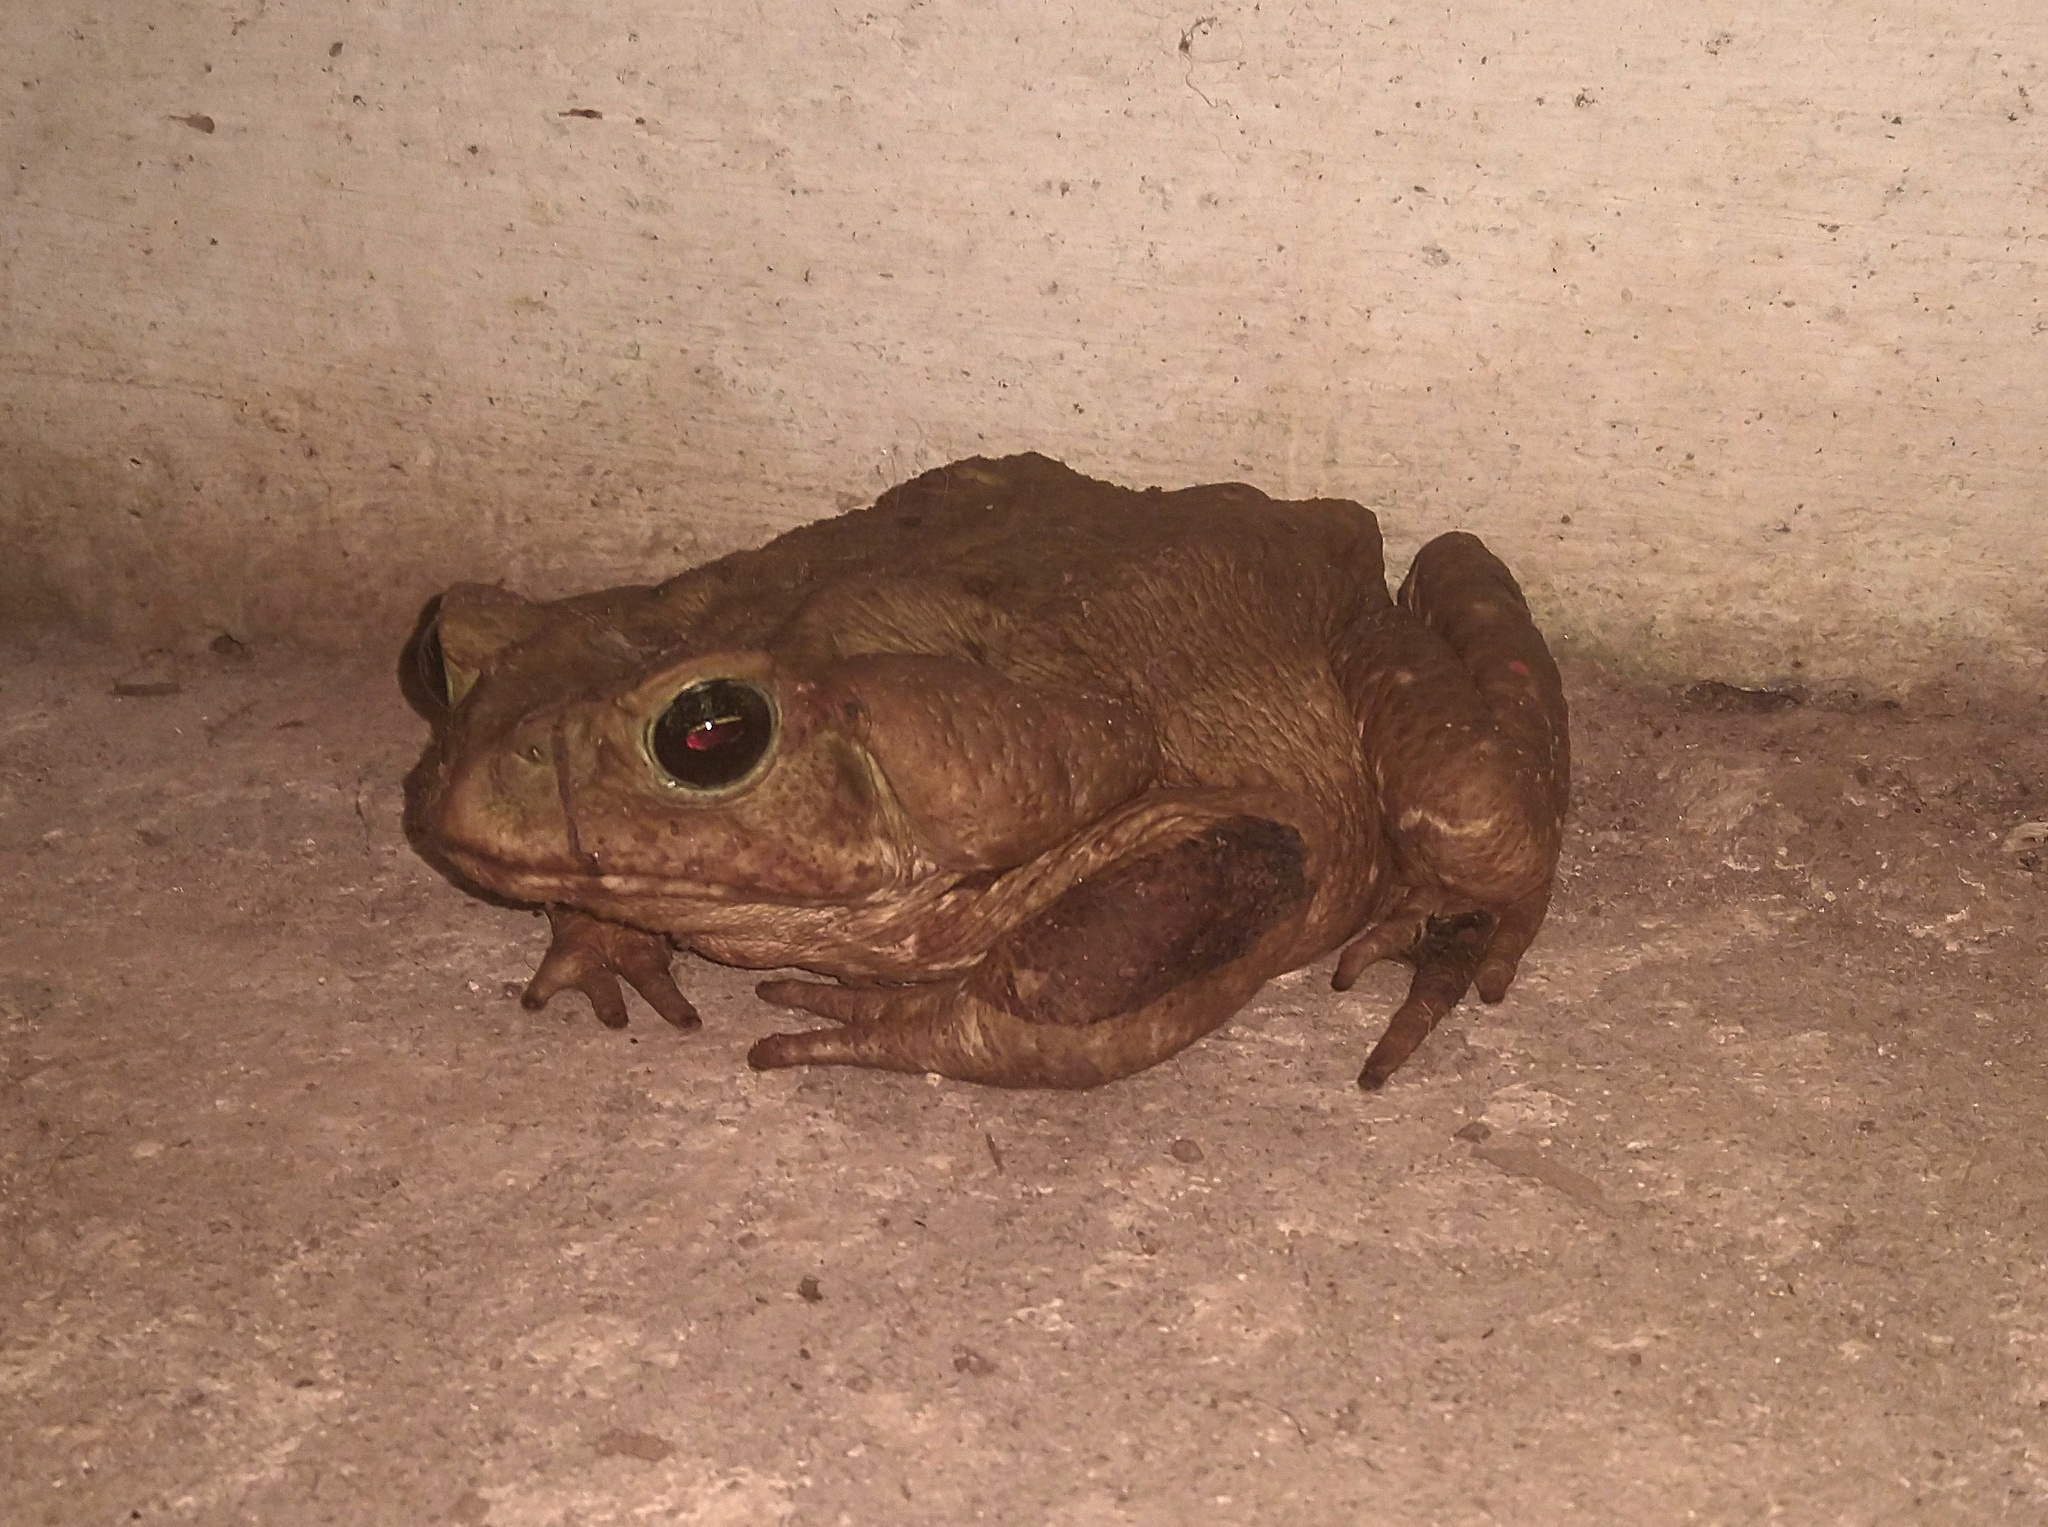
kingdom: Animalia
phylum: Chordata
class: Amphibia
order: Anura
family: Bufonidae
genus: Rhinella
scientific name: Rhinella icterica
